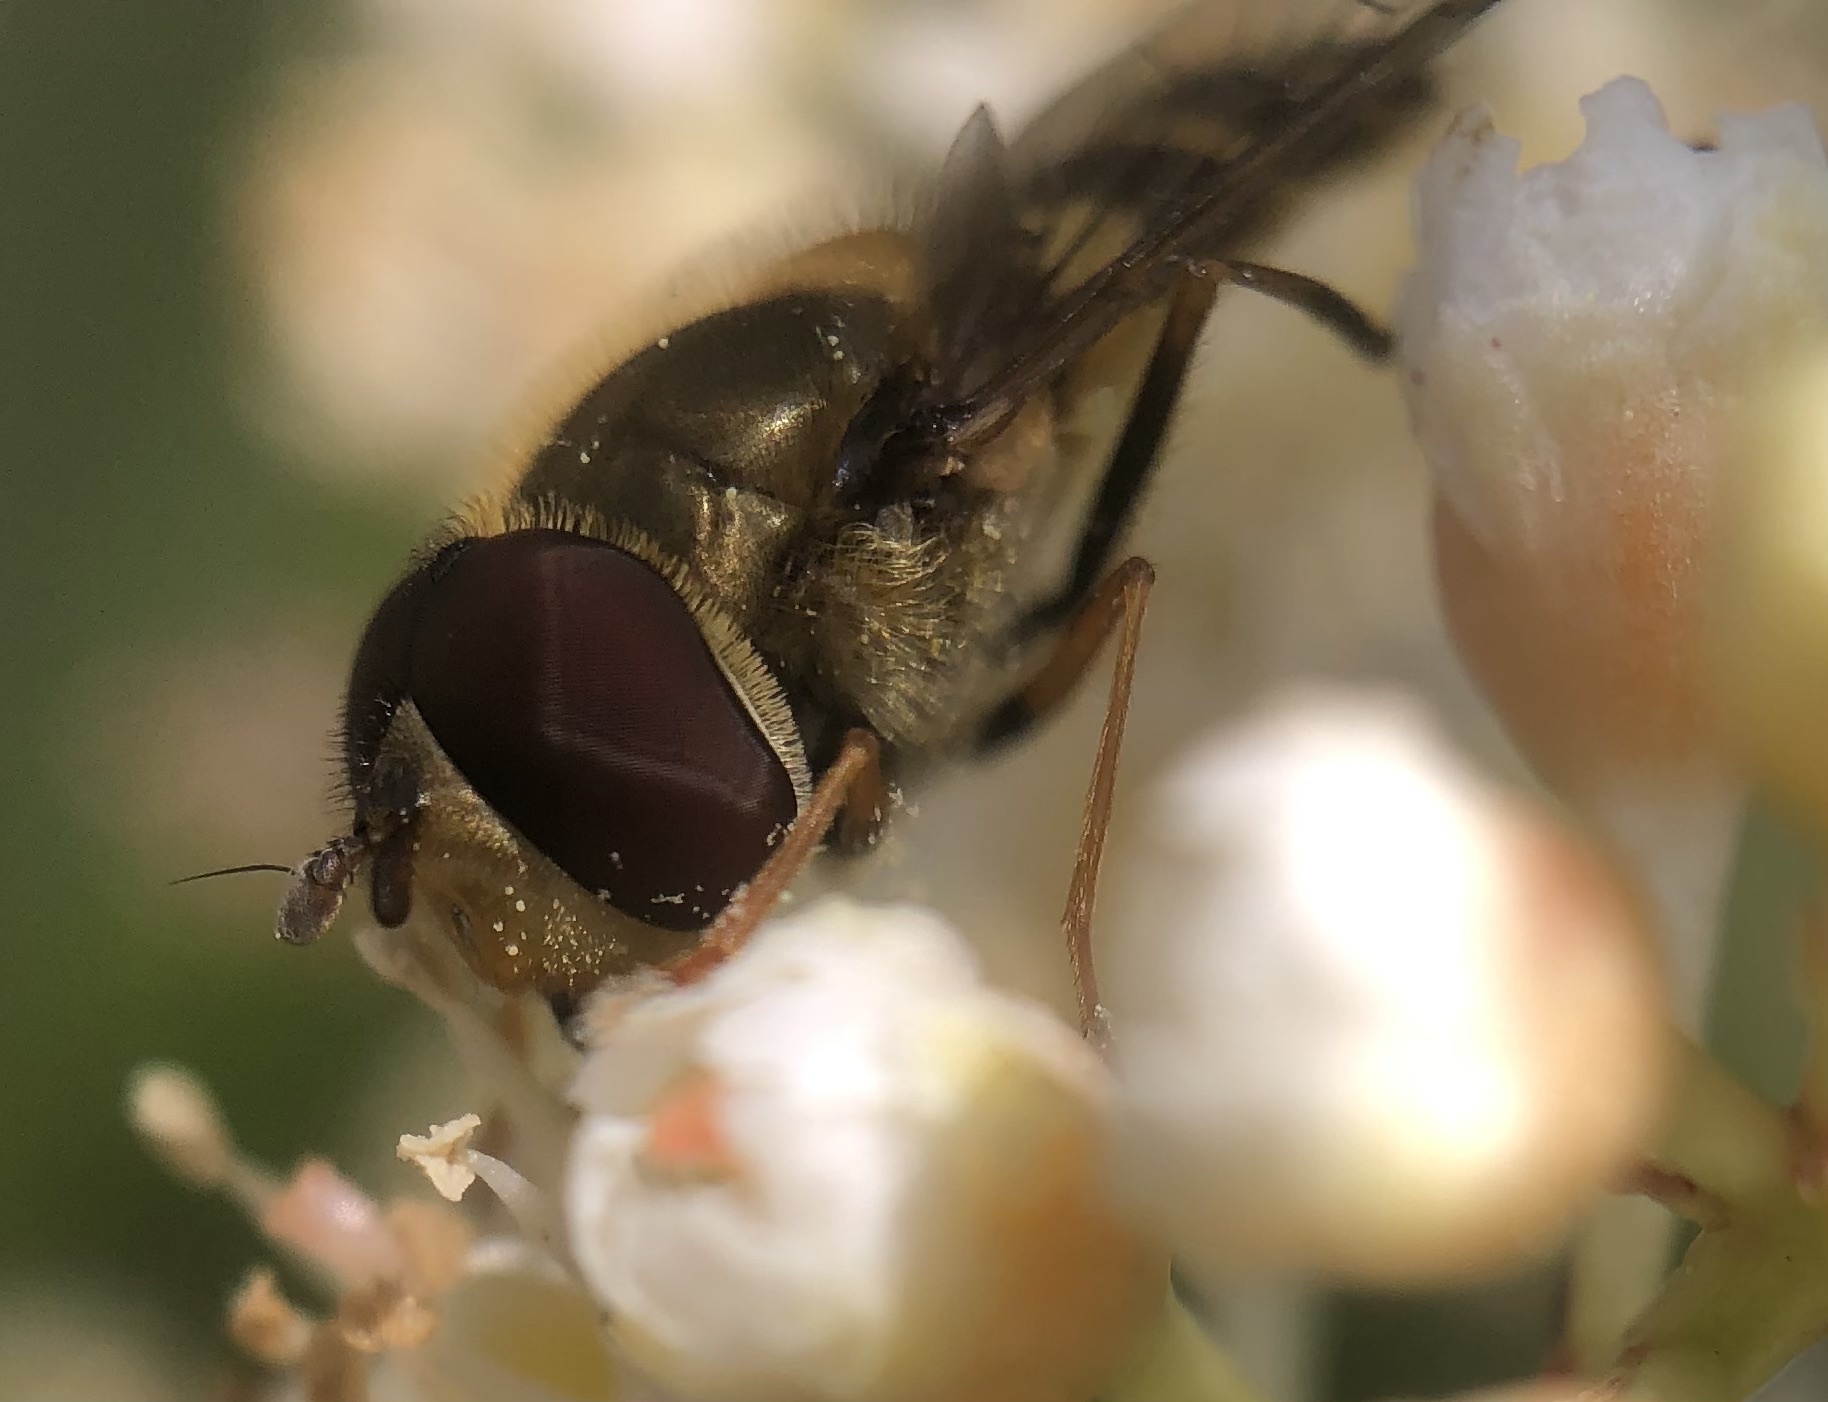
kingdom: Animalia
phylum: Arthropoda
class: Insecta
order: Diptera
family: Syrphidae
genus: Syrphus
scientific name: Syrphus
